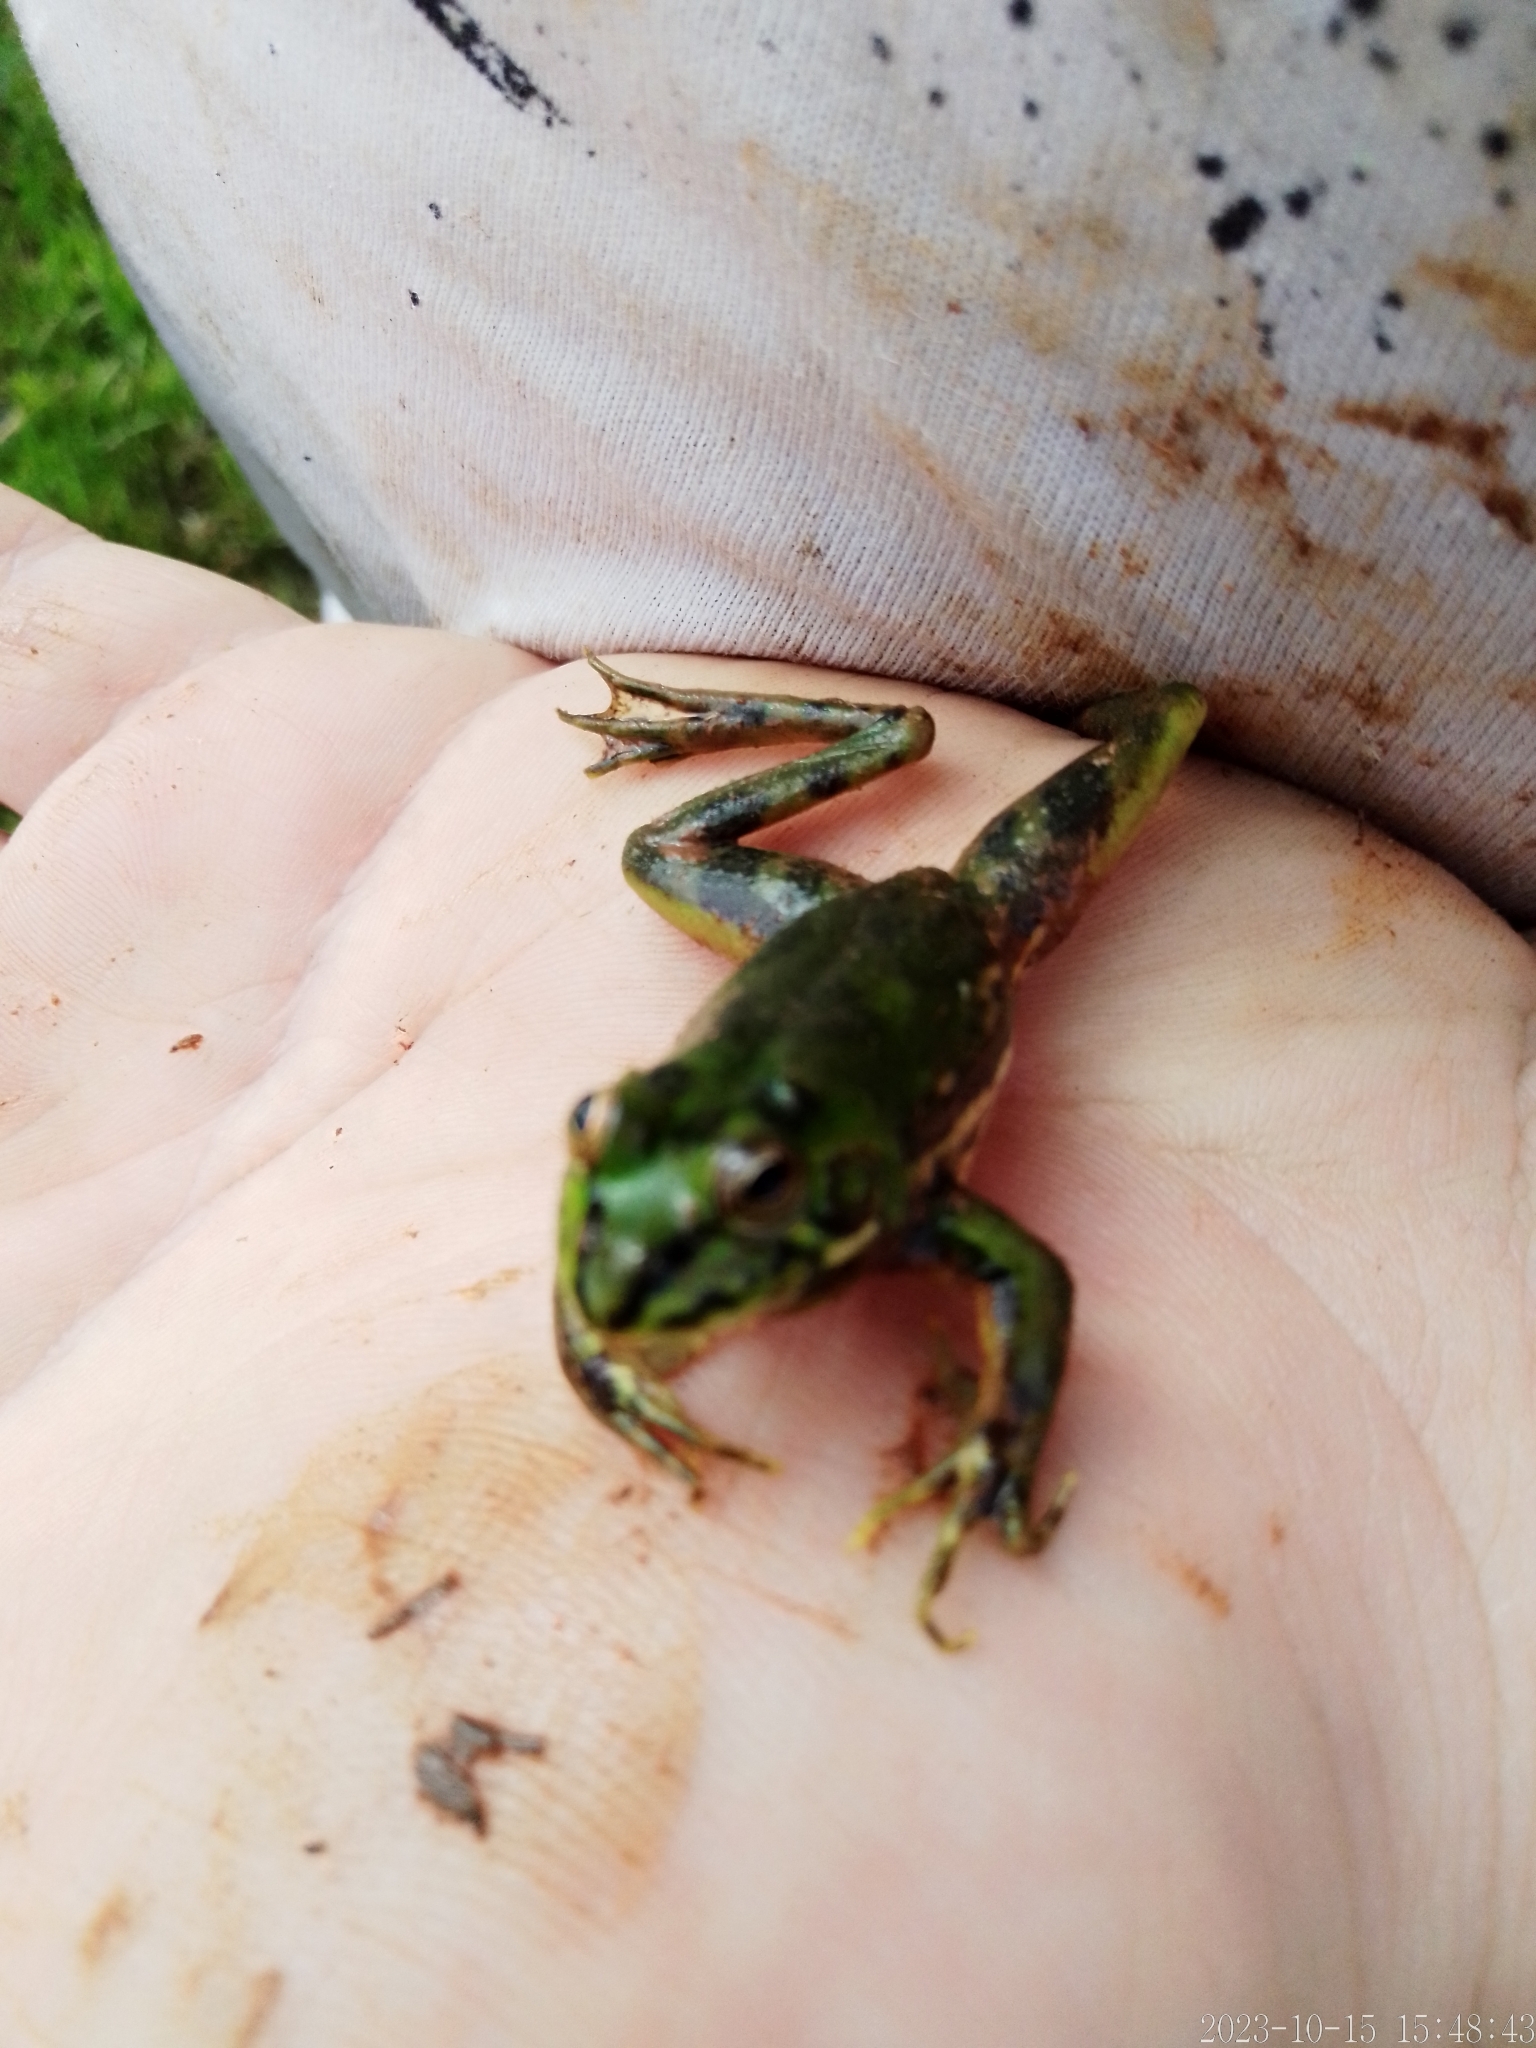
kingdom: Animalia
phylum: Chordata
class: Amphibia
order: Anura
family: Hylidae
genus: Pseudis
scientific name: Pseudis minuta
